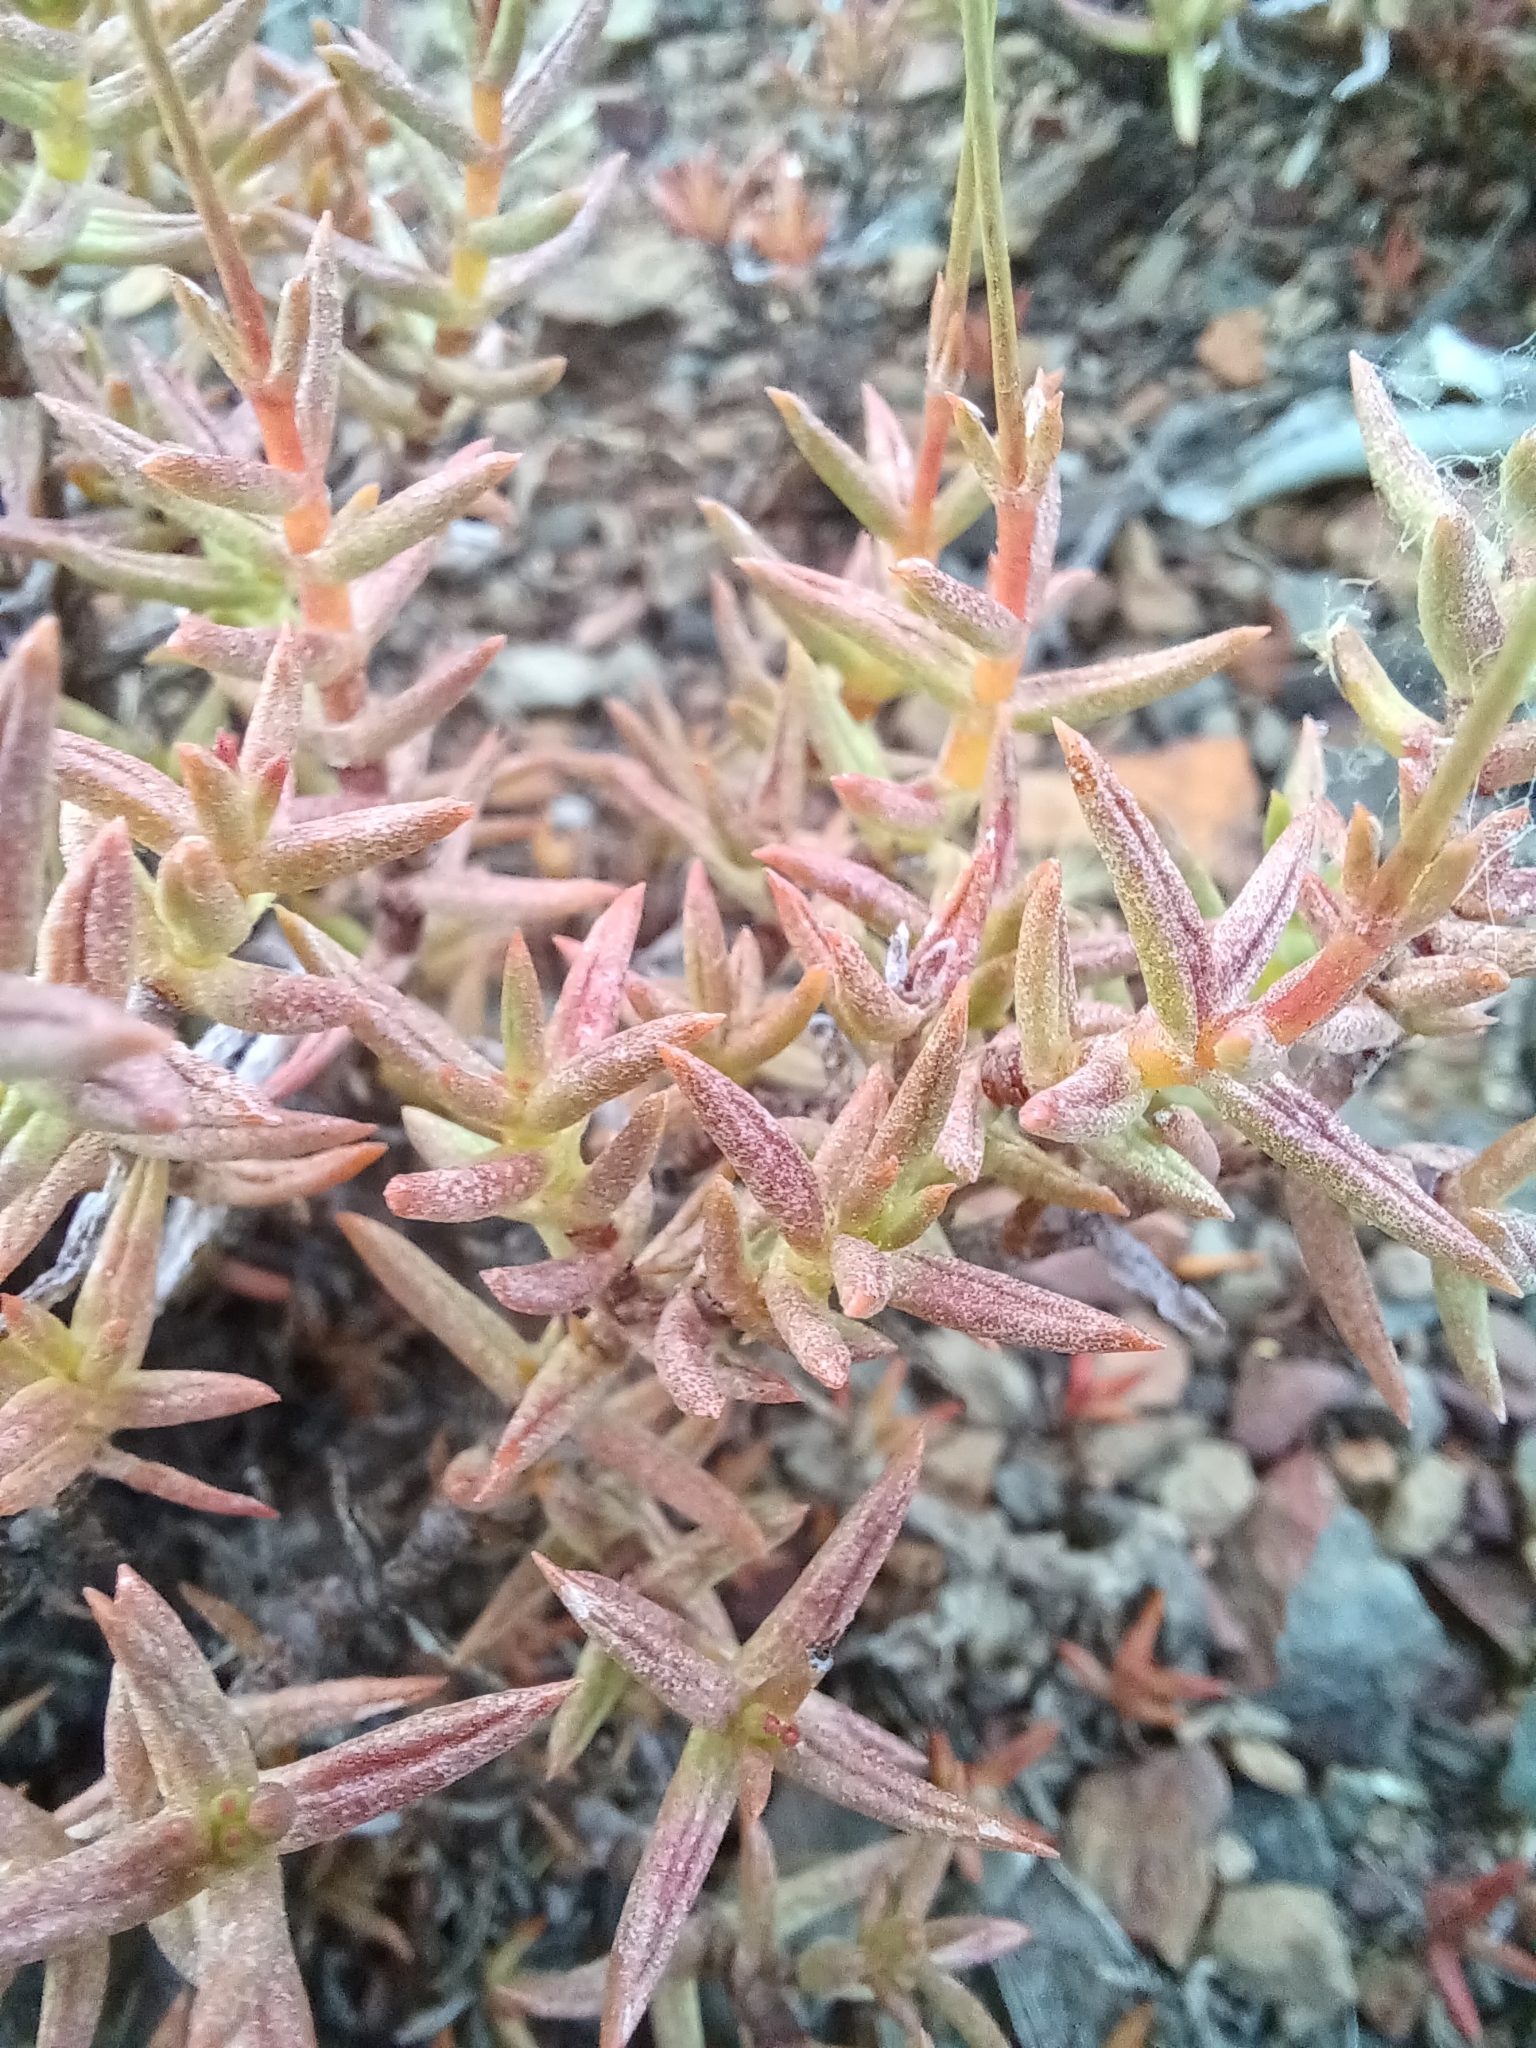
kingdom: Plantae
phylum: Tracheophyta
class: Magnoliopsida
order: Saxifragales
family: Crassulaceae
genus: Crassula
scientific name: Crassula tetragona
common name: Pygmyweed
